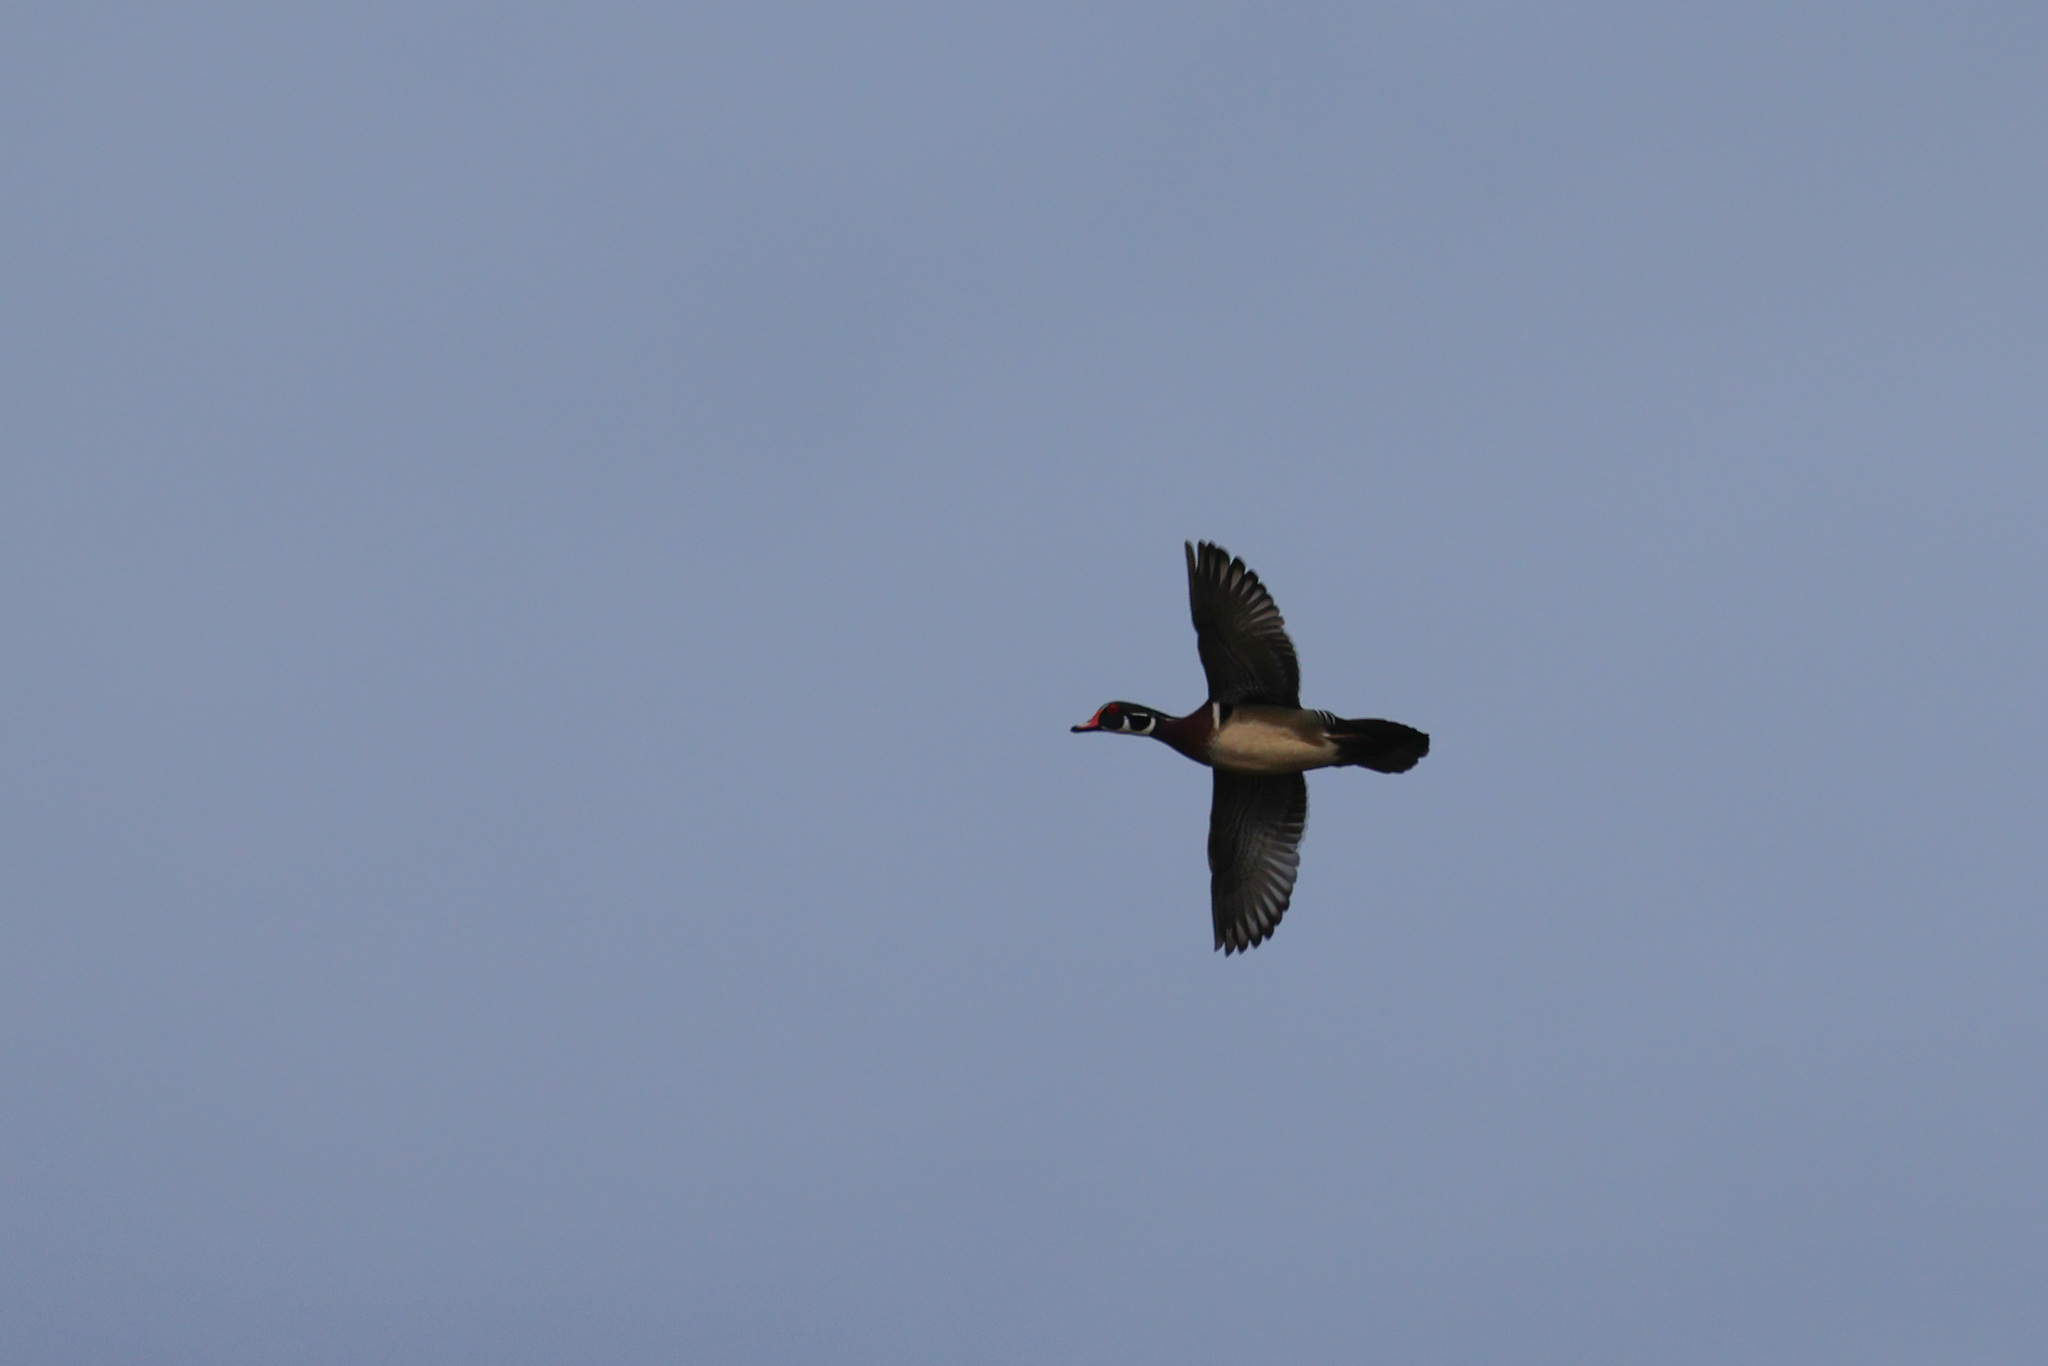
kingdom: Animalia
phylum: Chordata
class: Aves
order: Anseriformes
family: Anatidae
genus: Aix
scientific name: Aix sponsa
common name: Wood duck
